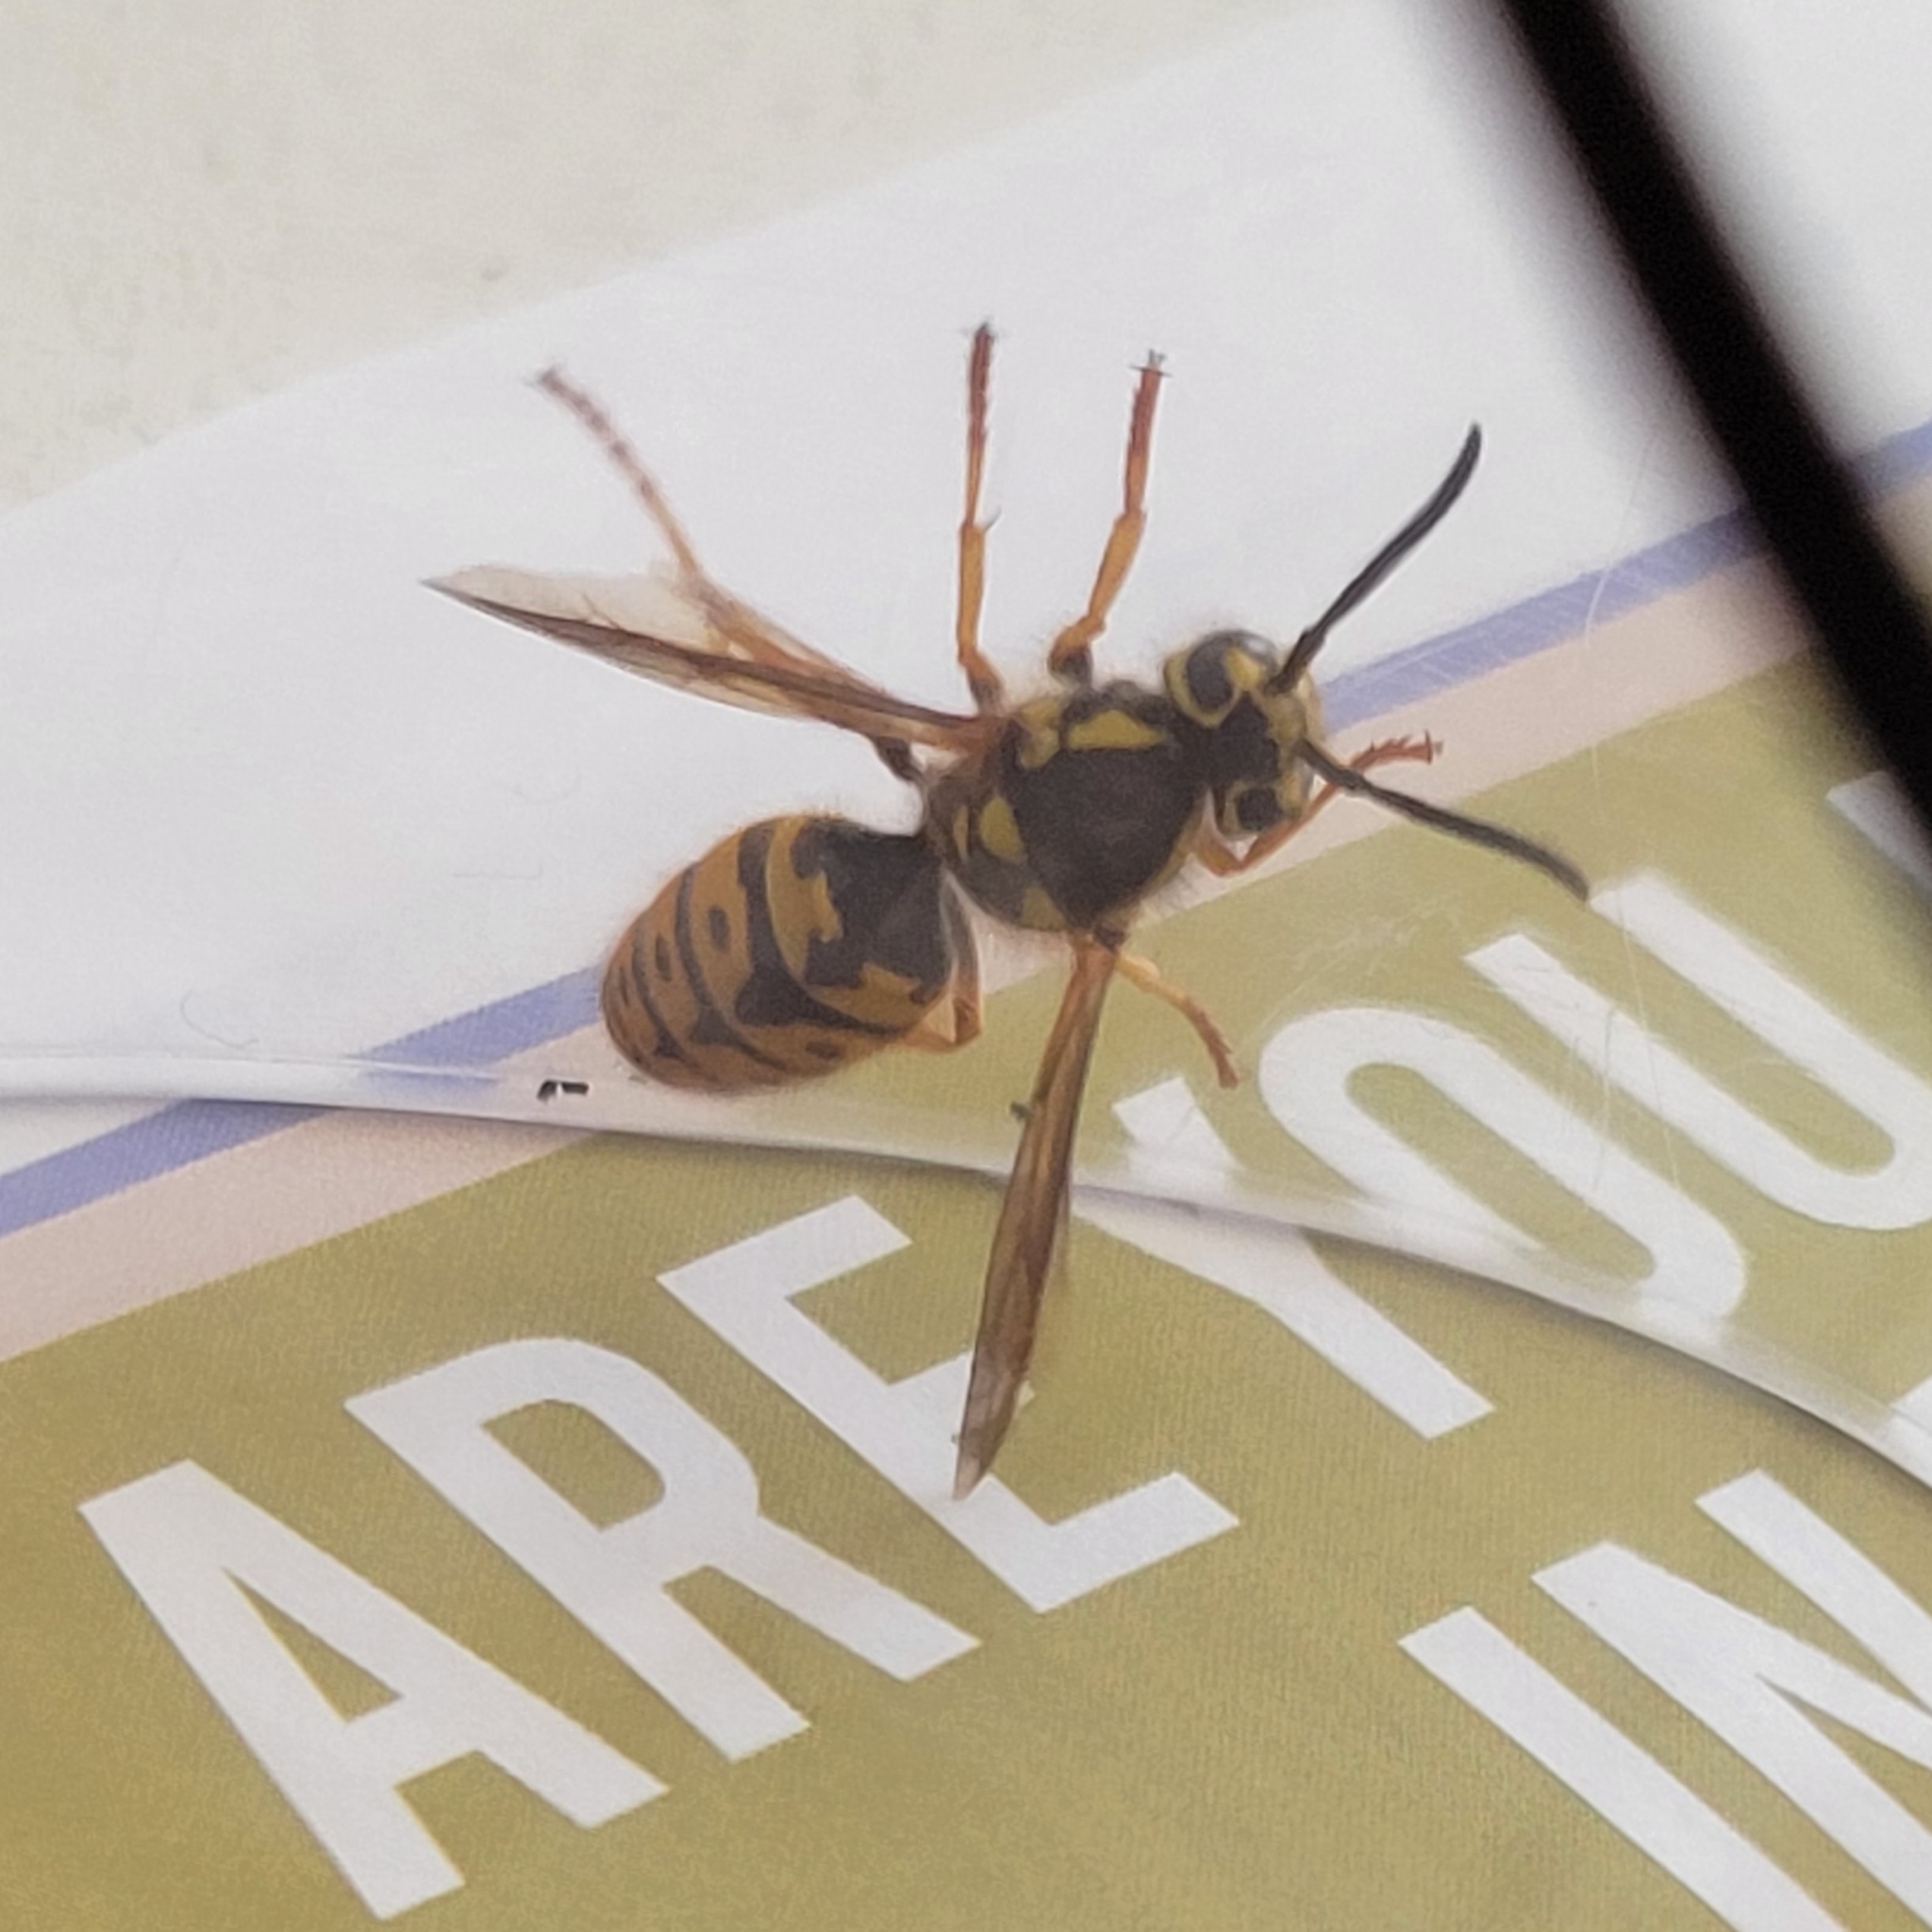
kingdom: Animalia
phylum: Arthropoda
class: Insecta
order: Hymenoptera
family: Vespidae
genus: Vespula
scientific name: Vespula pensylvanica
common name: Western yellowjacket
